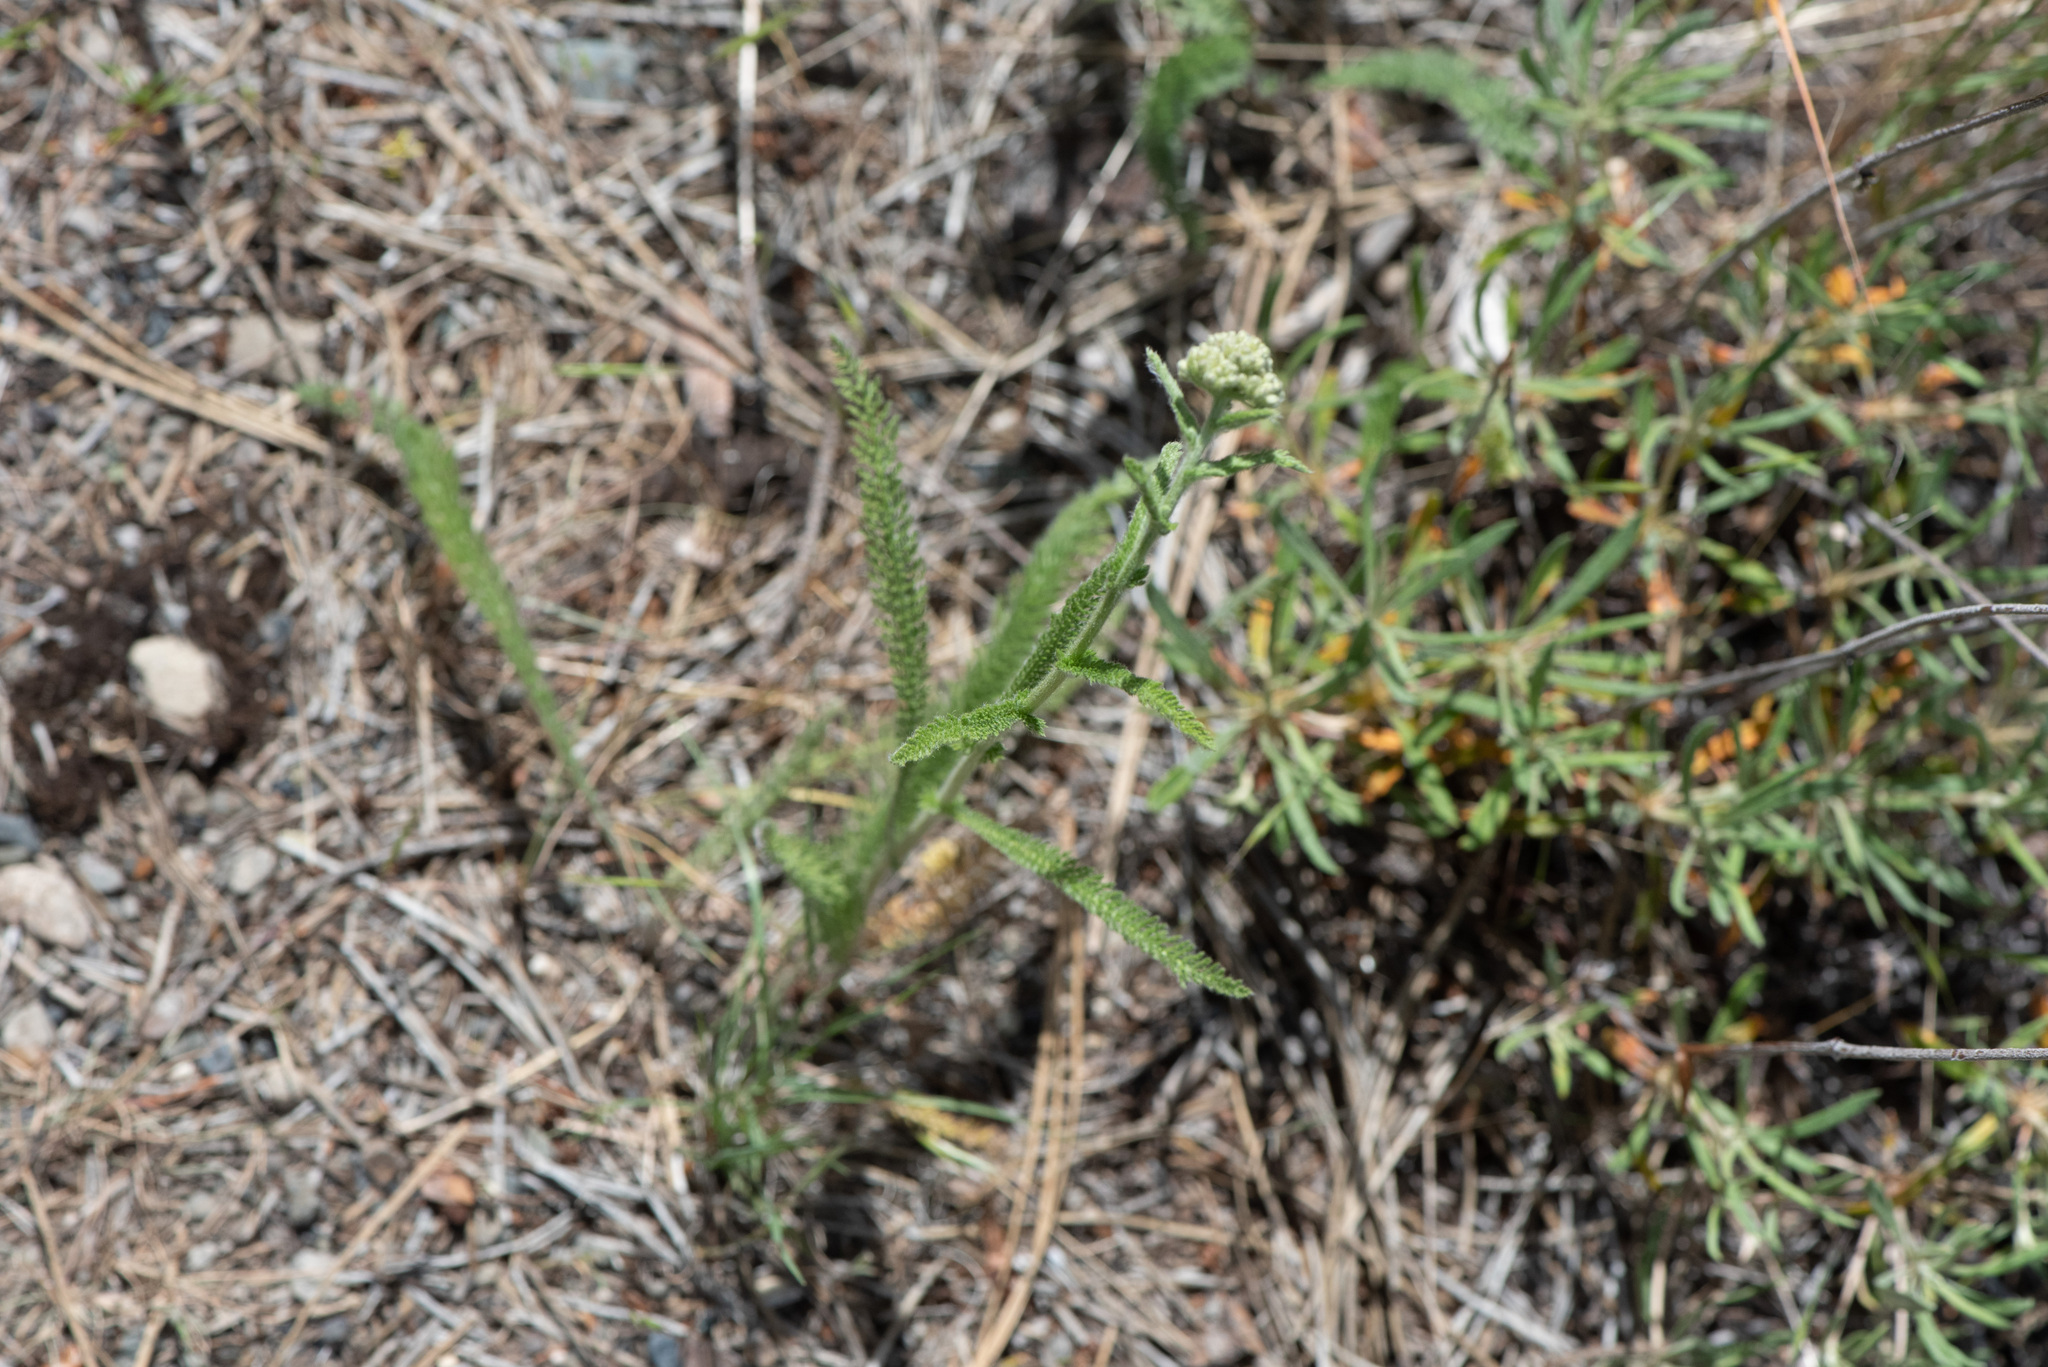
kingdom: Plantae
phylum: Tracheophyta
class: Magnoliopsida
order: Asterales
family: Asteraceae
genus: Achillea
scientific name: Achillea millefolium
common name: Yarrow
